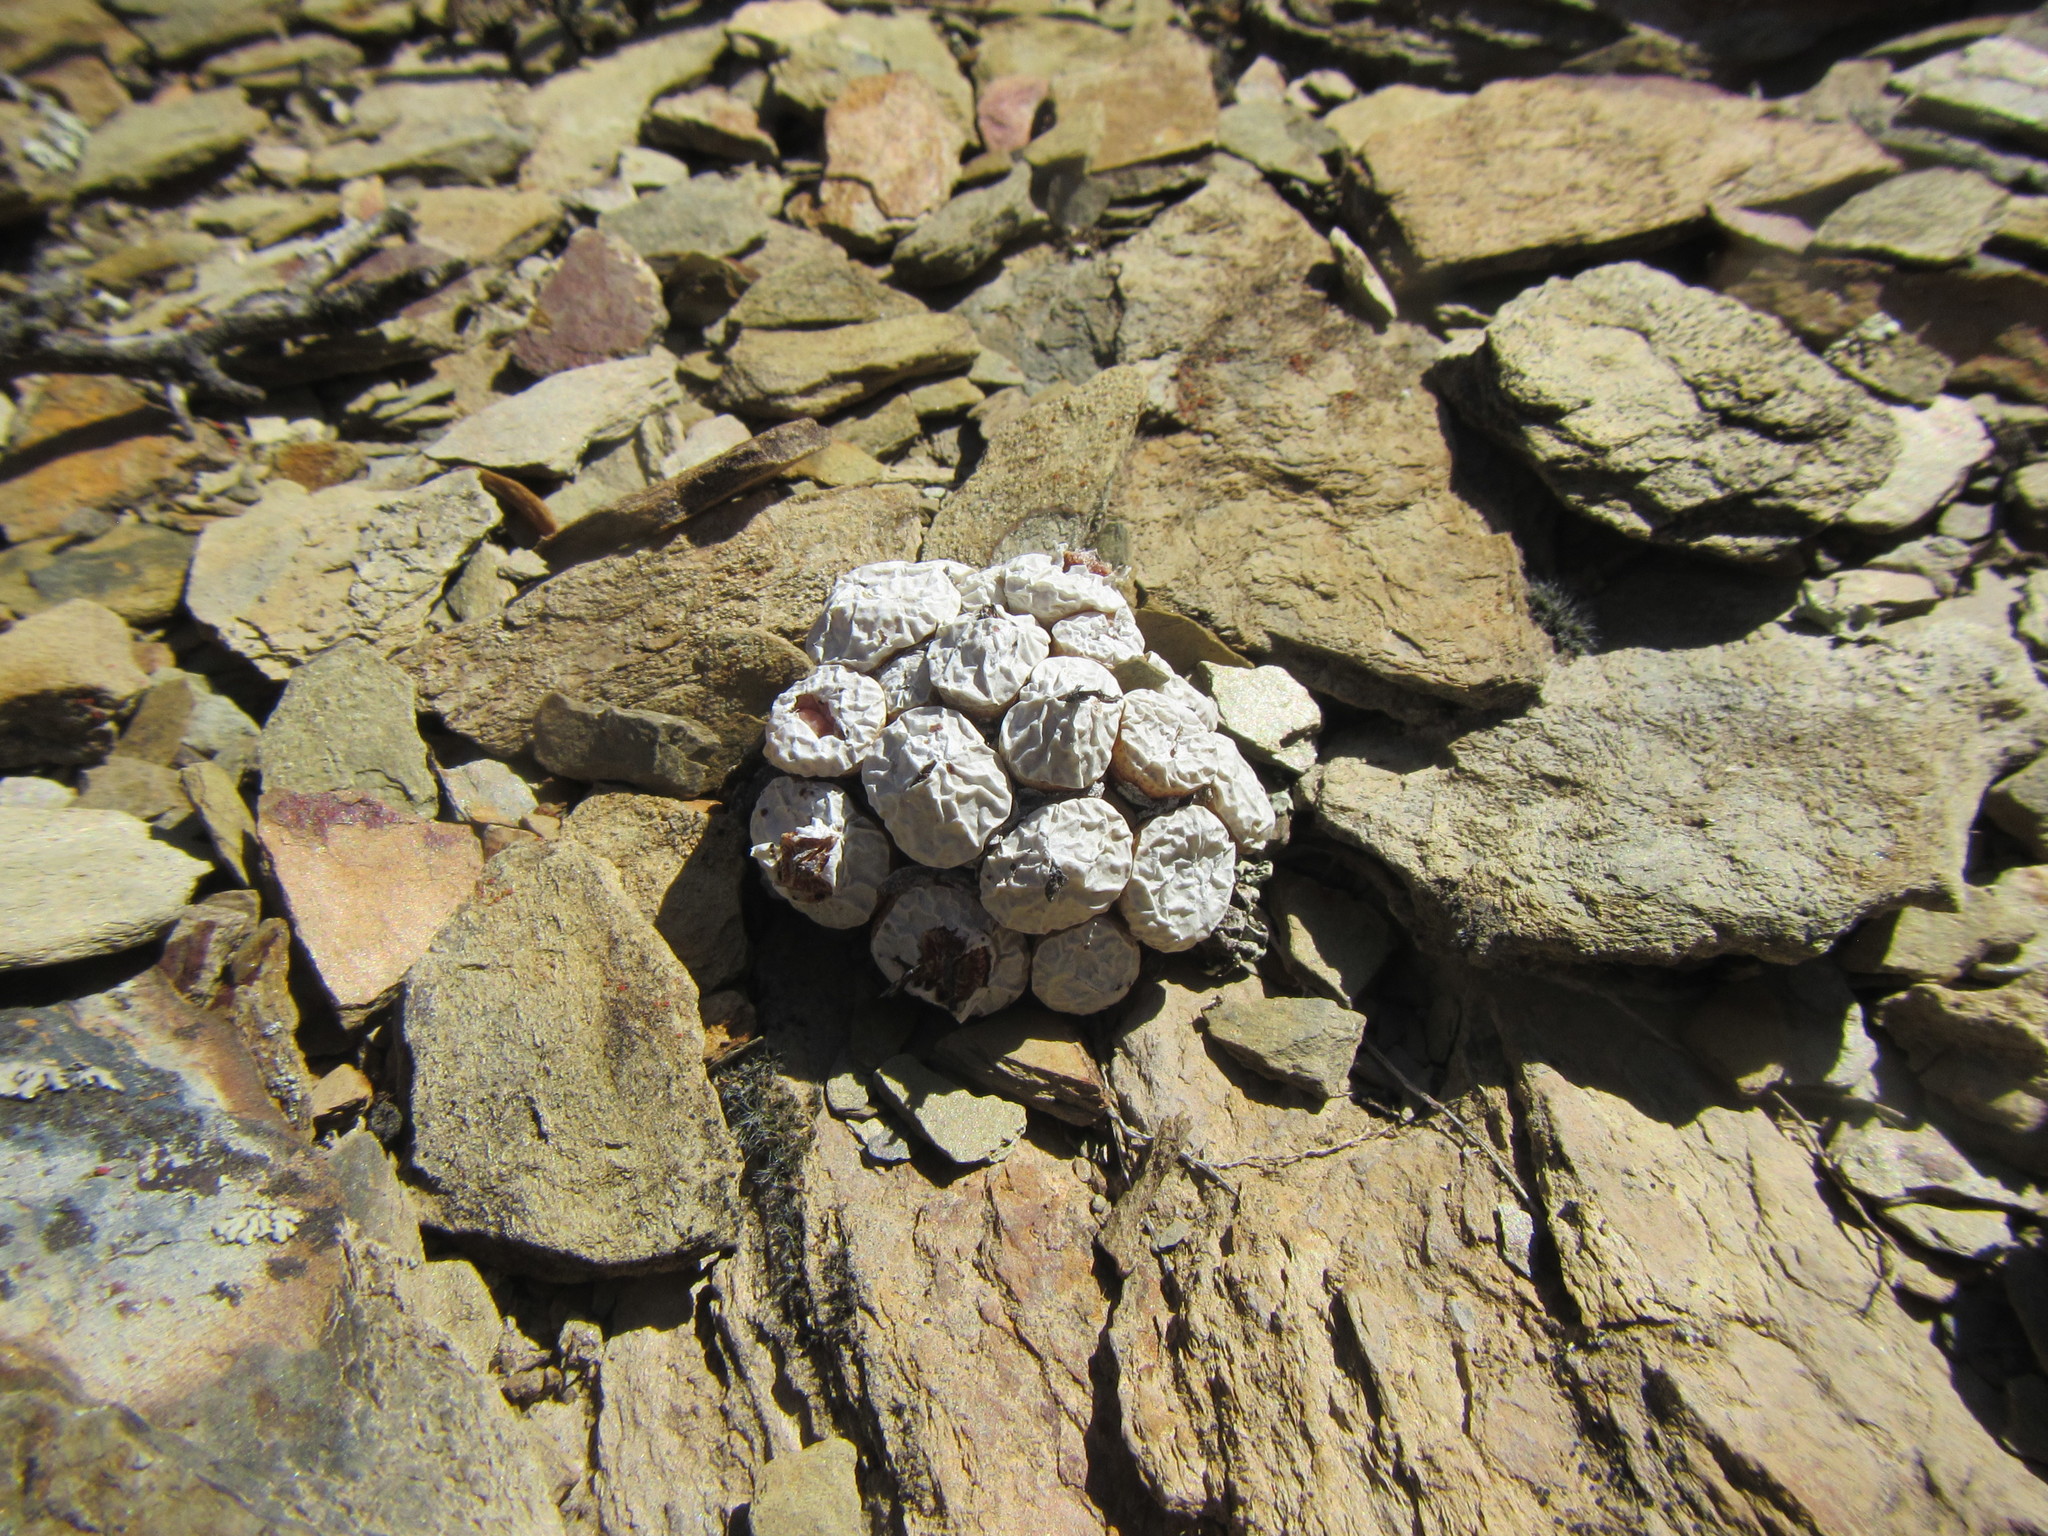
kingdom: Plantae
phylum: Tracheophyta
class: Magnoliopsida
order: Caryophyllales
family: Aizoaceae
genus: Conophytum
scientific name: Conophytum truncatum
